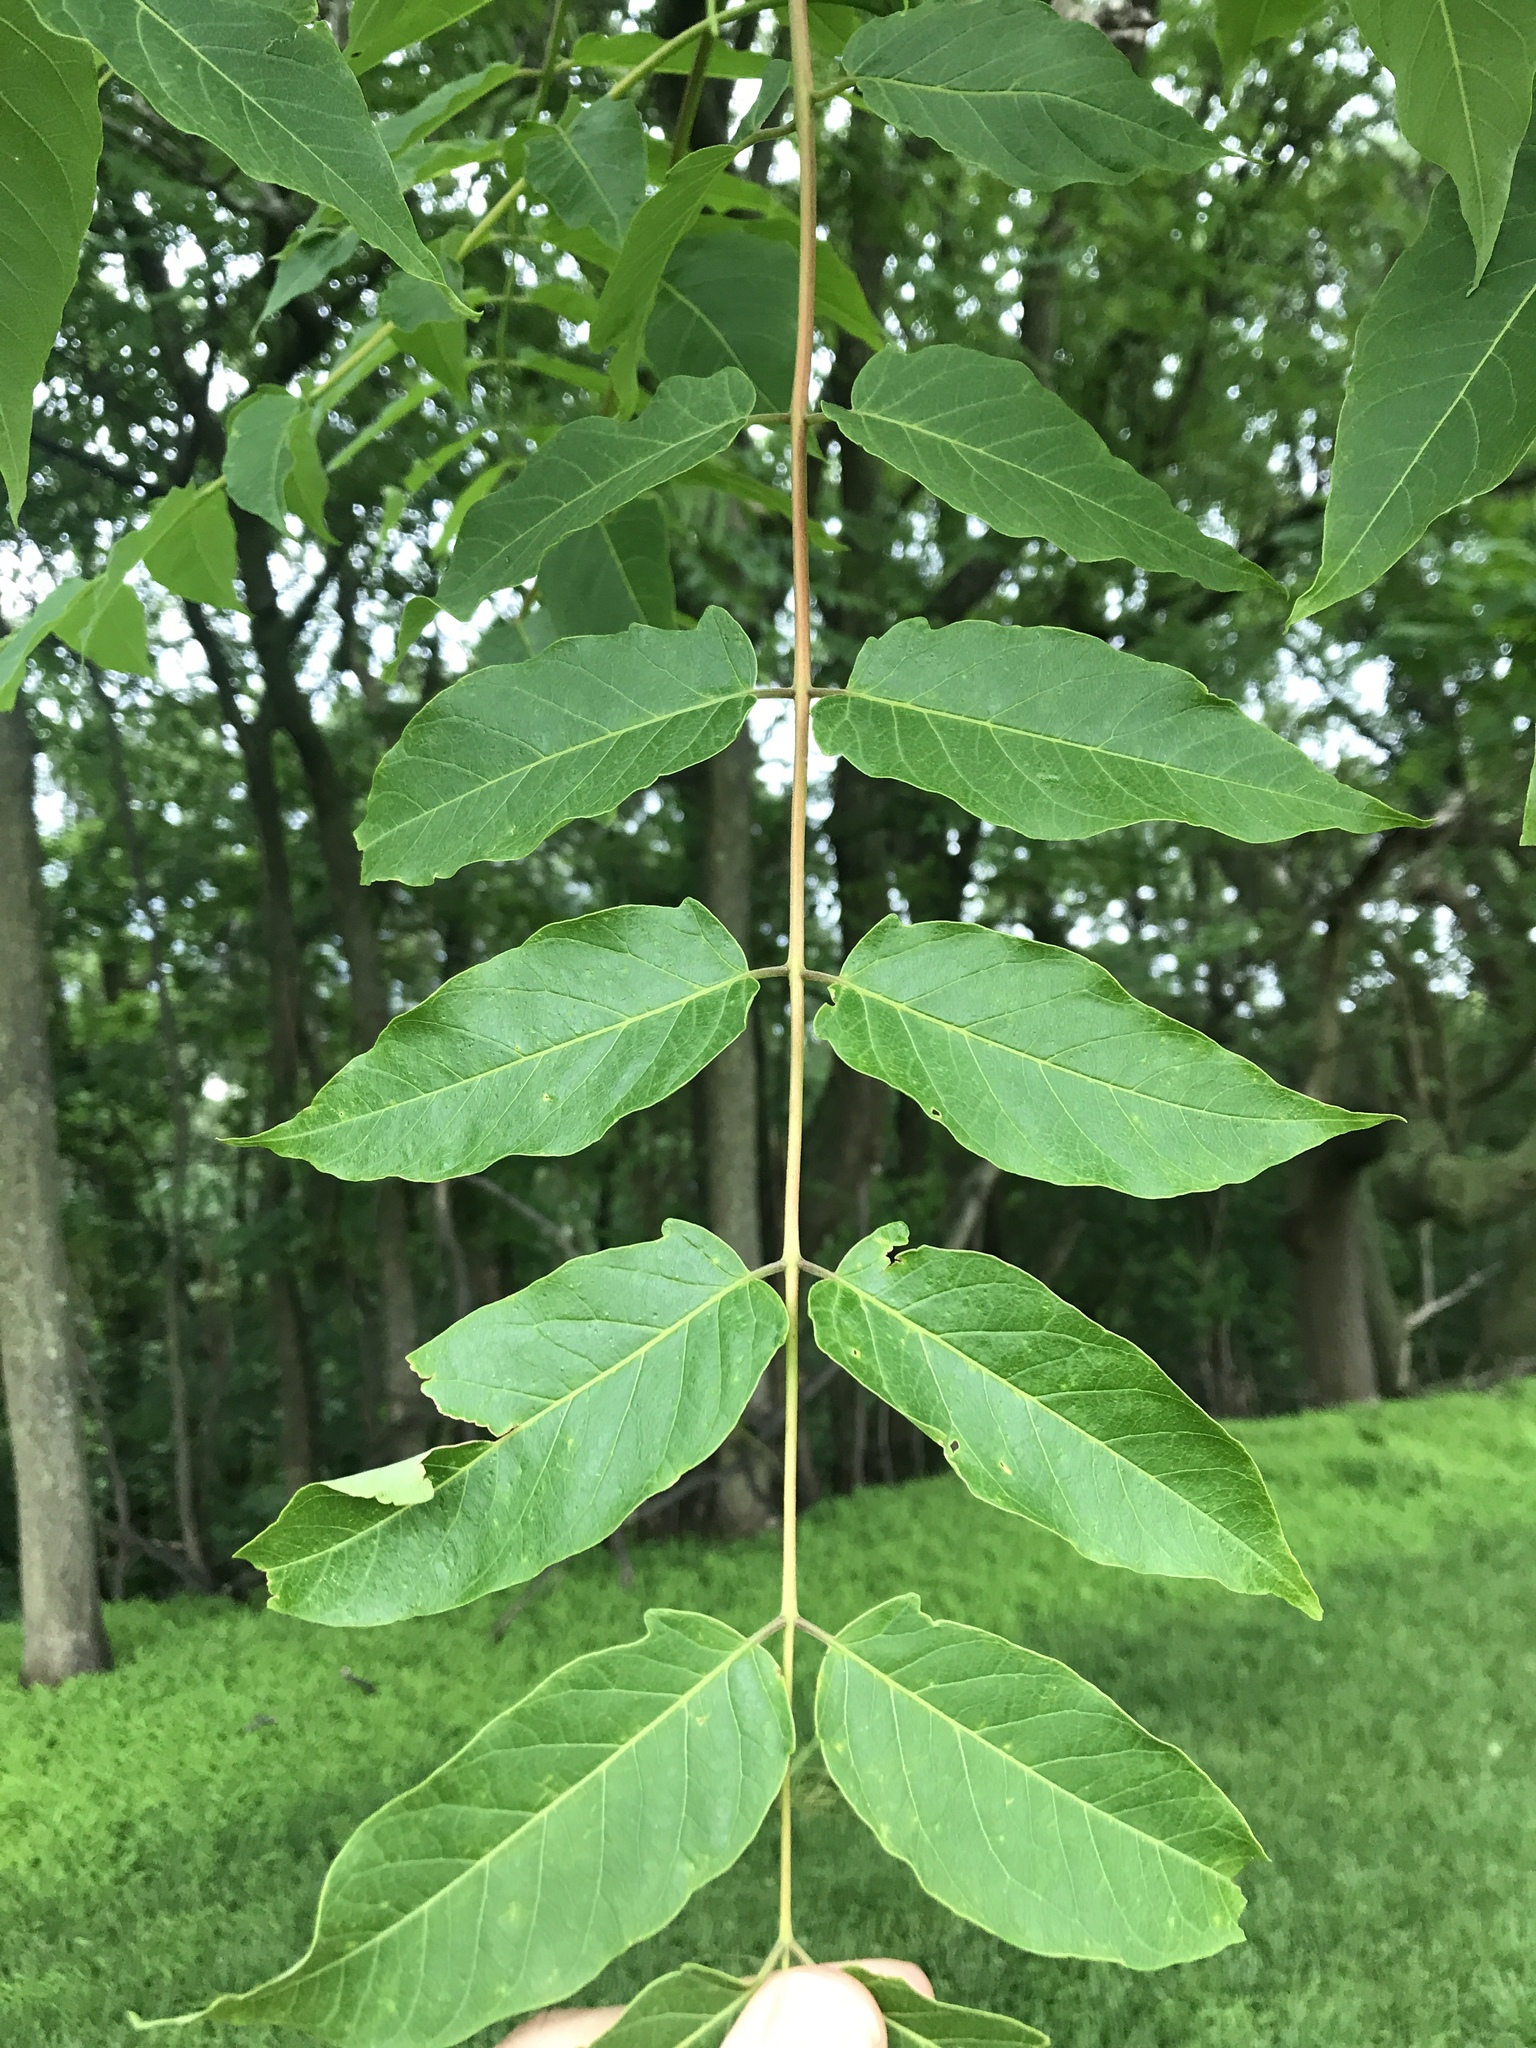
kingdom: Plantae
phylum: Tracheophyta
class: Magnoliopsida
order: Sapindales
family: Simaroubaceae
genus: Ailanthus
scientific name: Ailanthus altissima
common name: Tree-of-heaven
